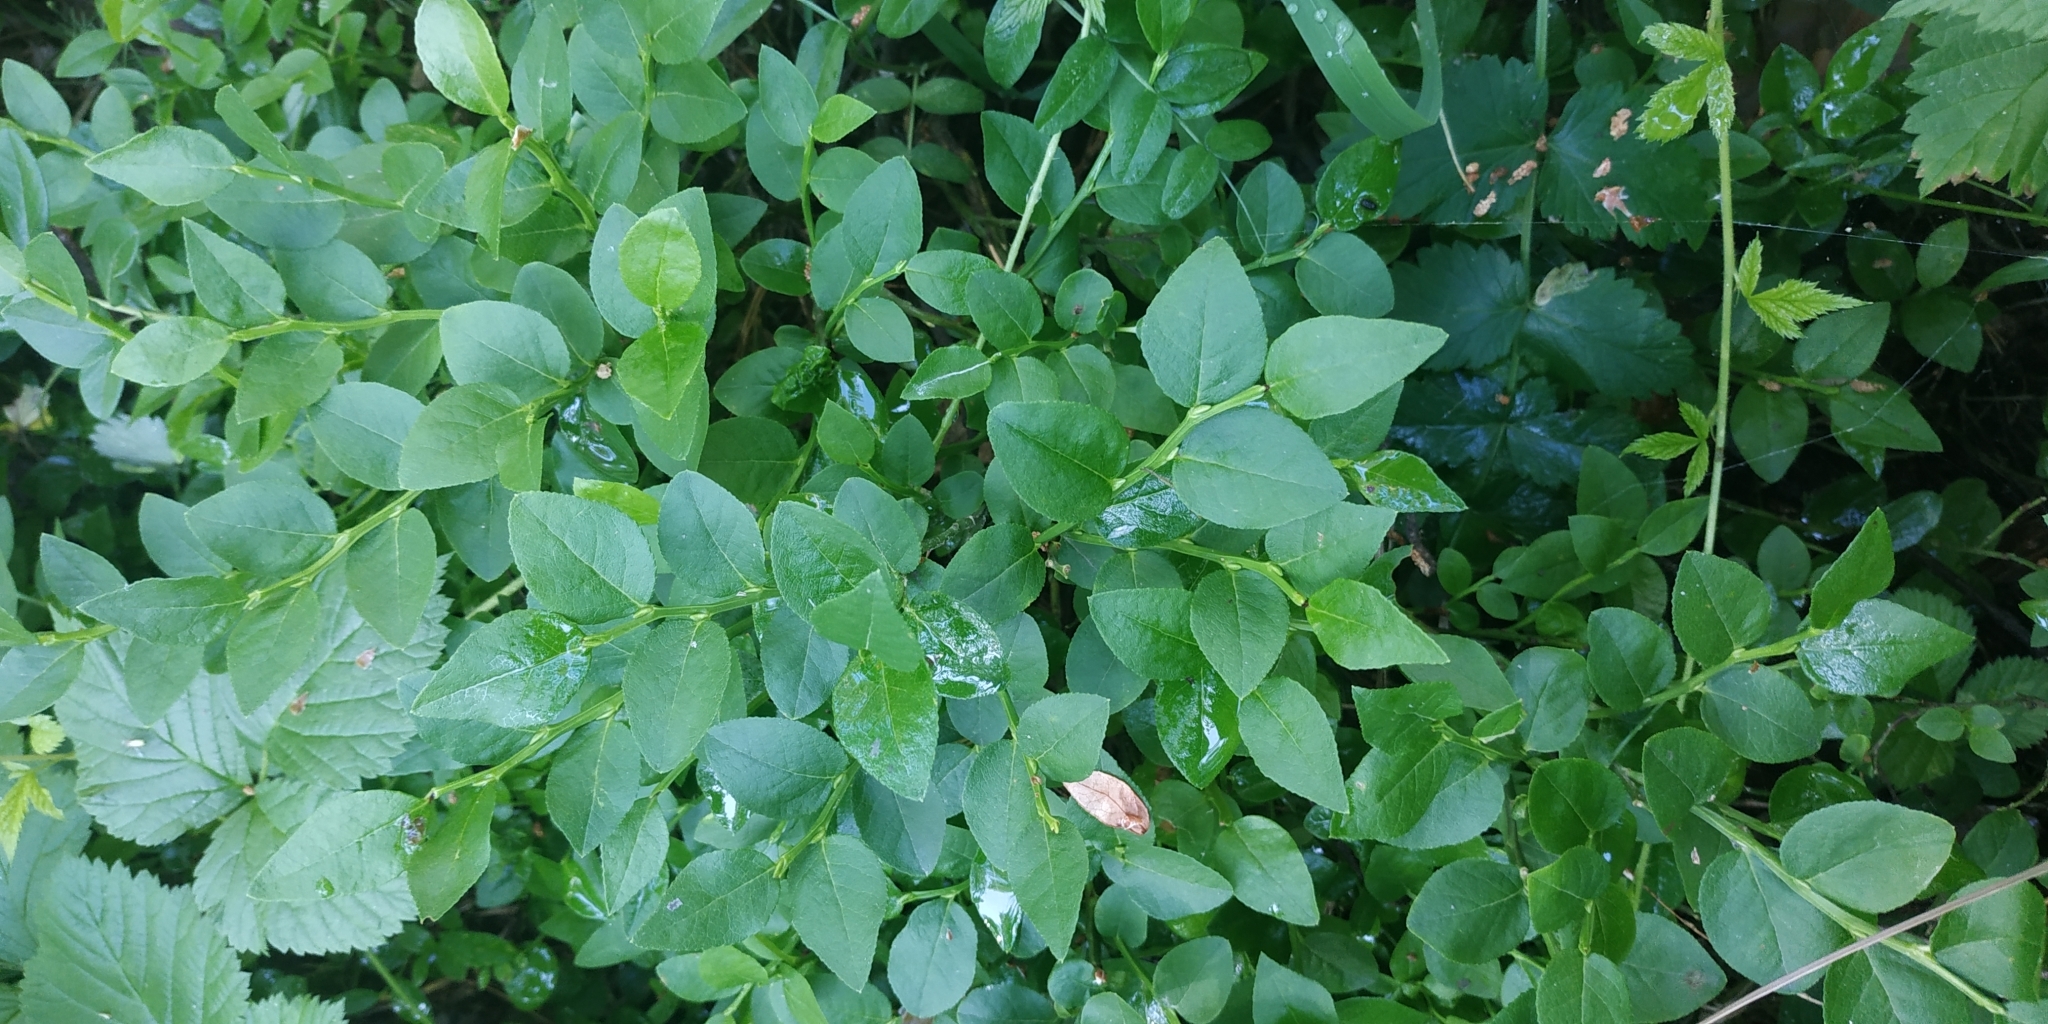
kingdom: Plantae
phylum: Tracheophyta
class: Magnoliopsida
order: Ericales
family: Ericaceae
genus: Vaccinium
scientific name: Vaccinium myrtillus
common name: Bilberry
